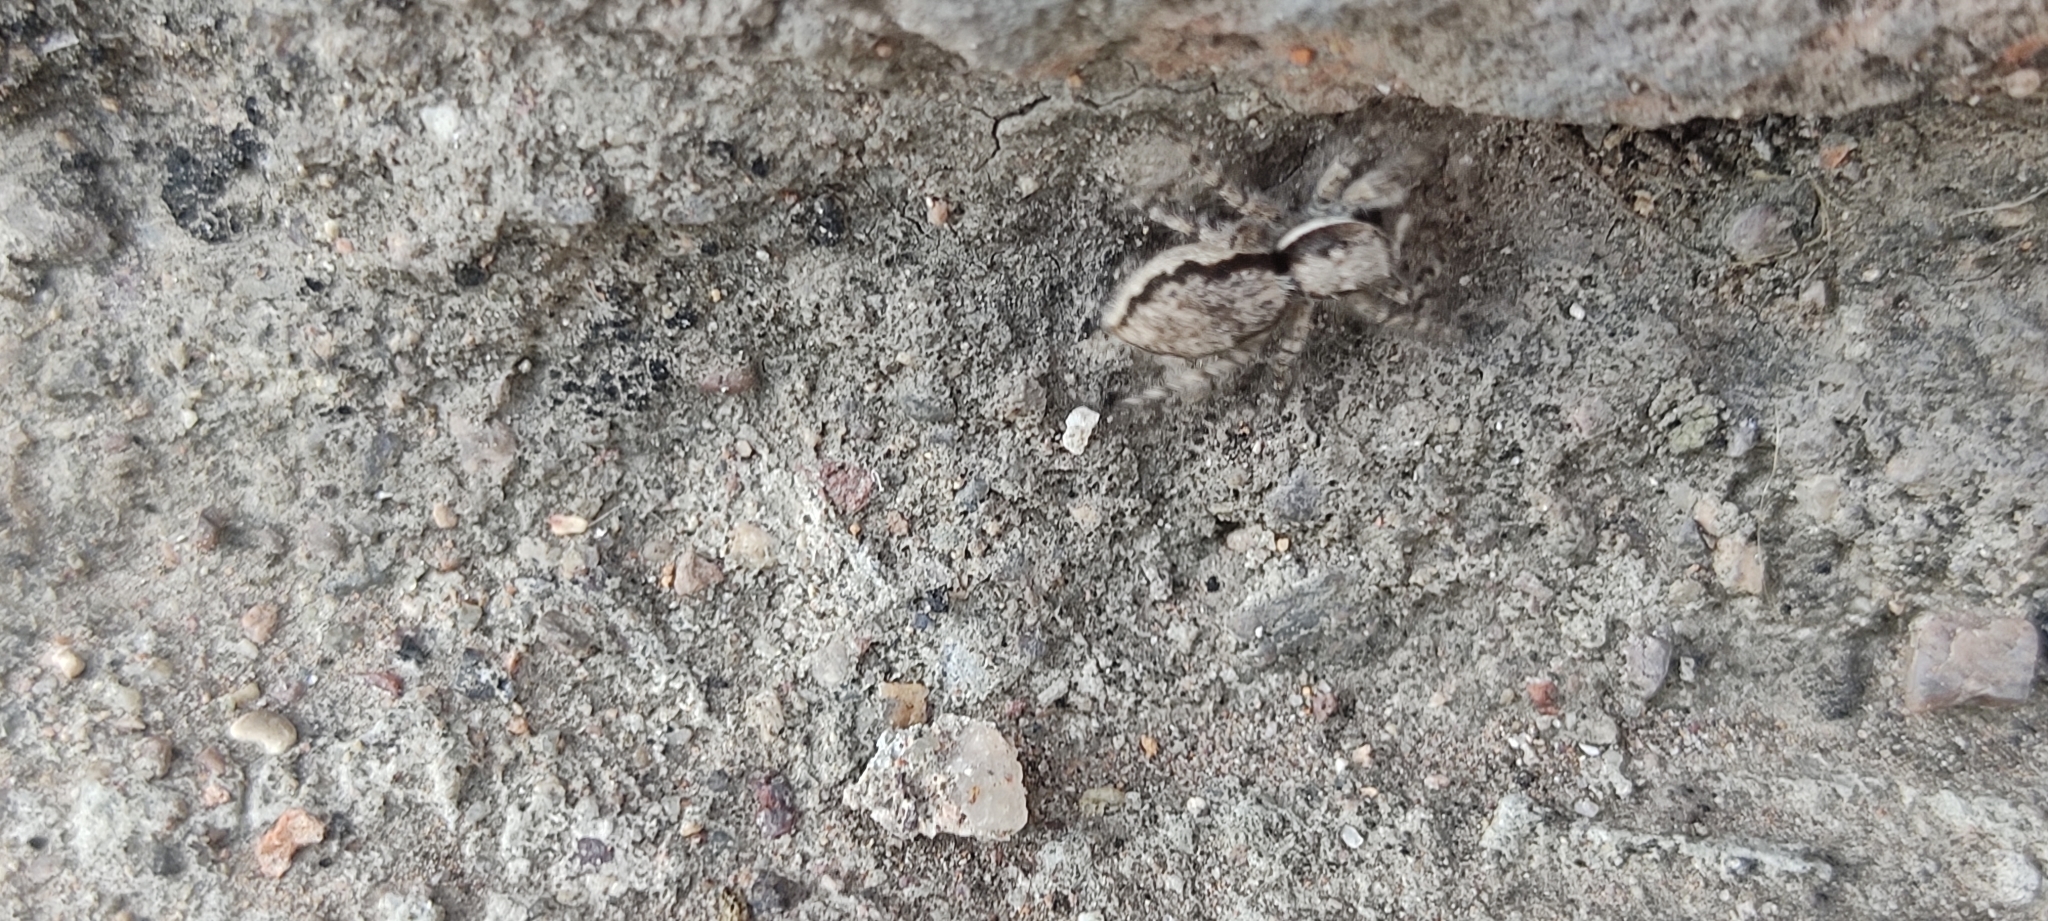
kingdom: Animalia
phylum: Arthropoda
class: Arachnida
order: Araneae
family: Salticidae
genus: Menemerus
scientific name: Menemerus bivittatus
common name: Gray wall jumper
